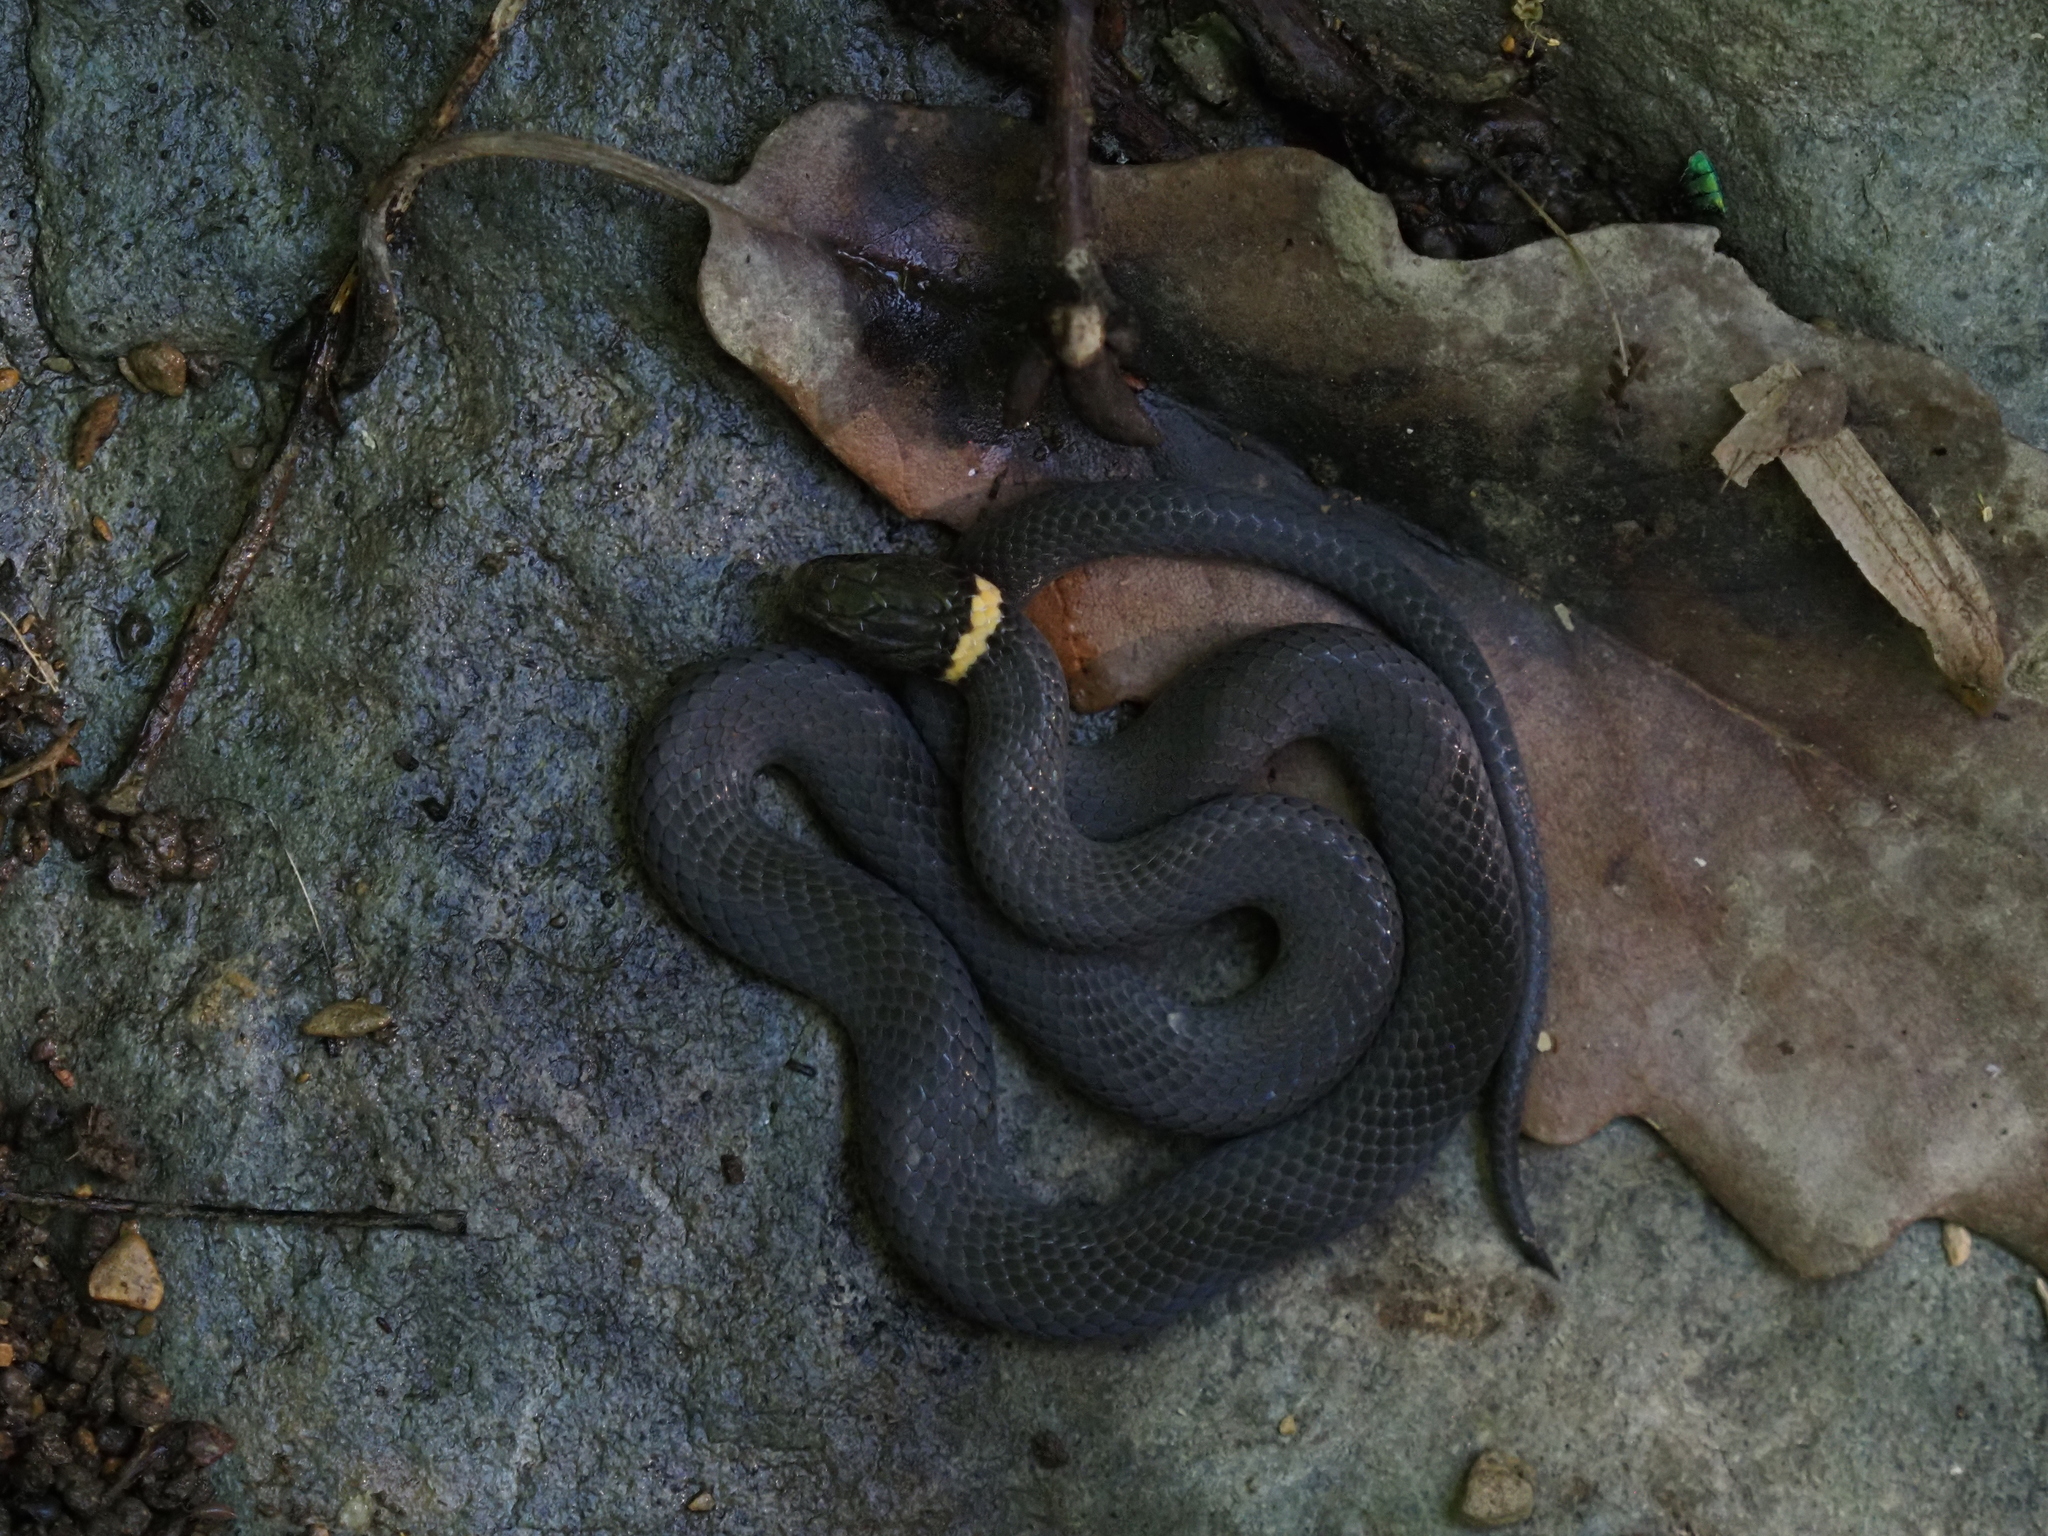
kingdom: Animalia
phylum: Chordata
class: Squamata
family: Colubridae
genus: Diadophis
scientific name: Diadophis punctatus
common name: Ringneck snake
